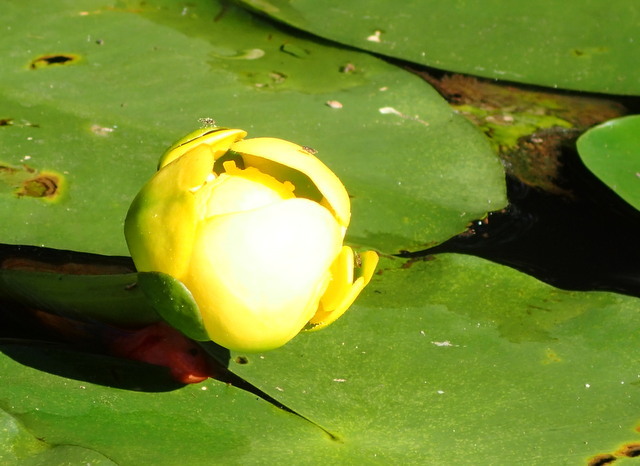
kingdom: Plantae
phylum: Tracheophyta
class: Magnoliopsida
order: Nymphaeales
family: Nymphaeaceae
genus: Nuphar
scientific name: Nuphar advena
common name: Spatter-dock
